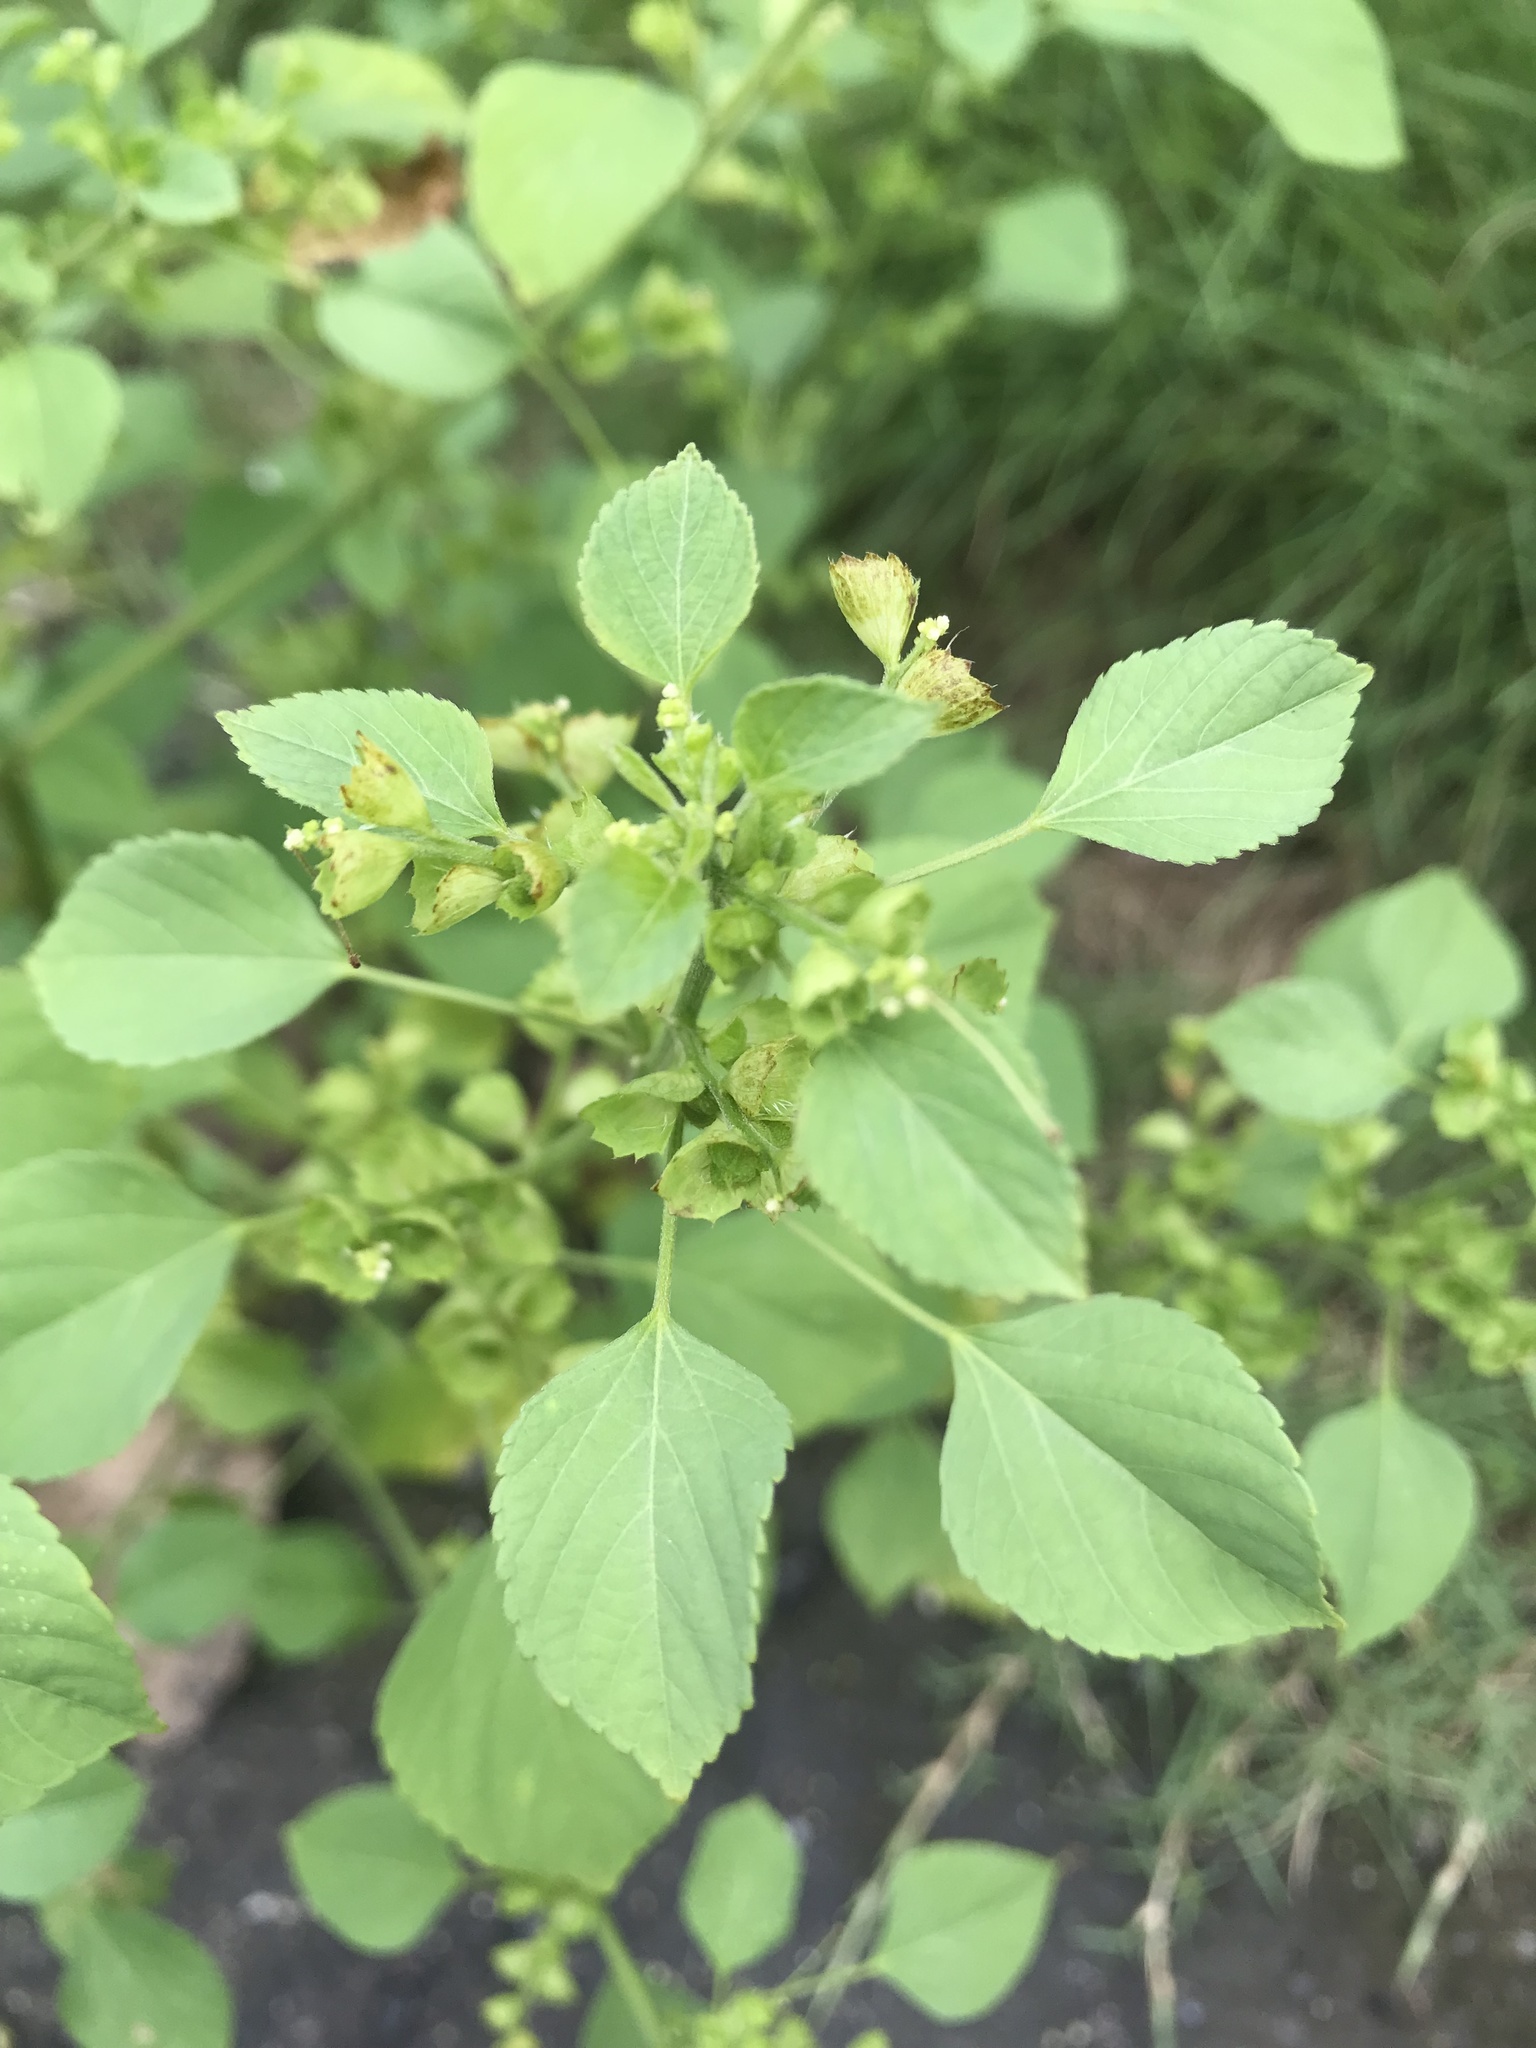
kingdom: Plantae
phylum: Tracheophyta
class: Magnoliopsida
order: Malpighiales
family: Euphorbiaceae
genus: Acalypha
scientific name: Acalypha indica
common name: Indian acalypha
